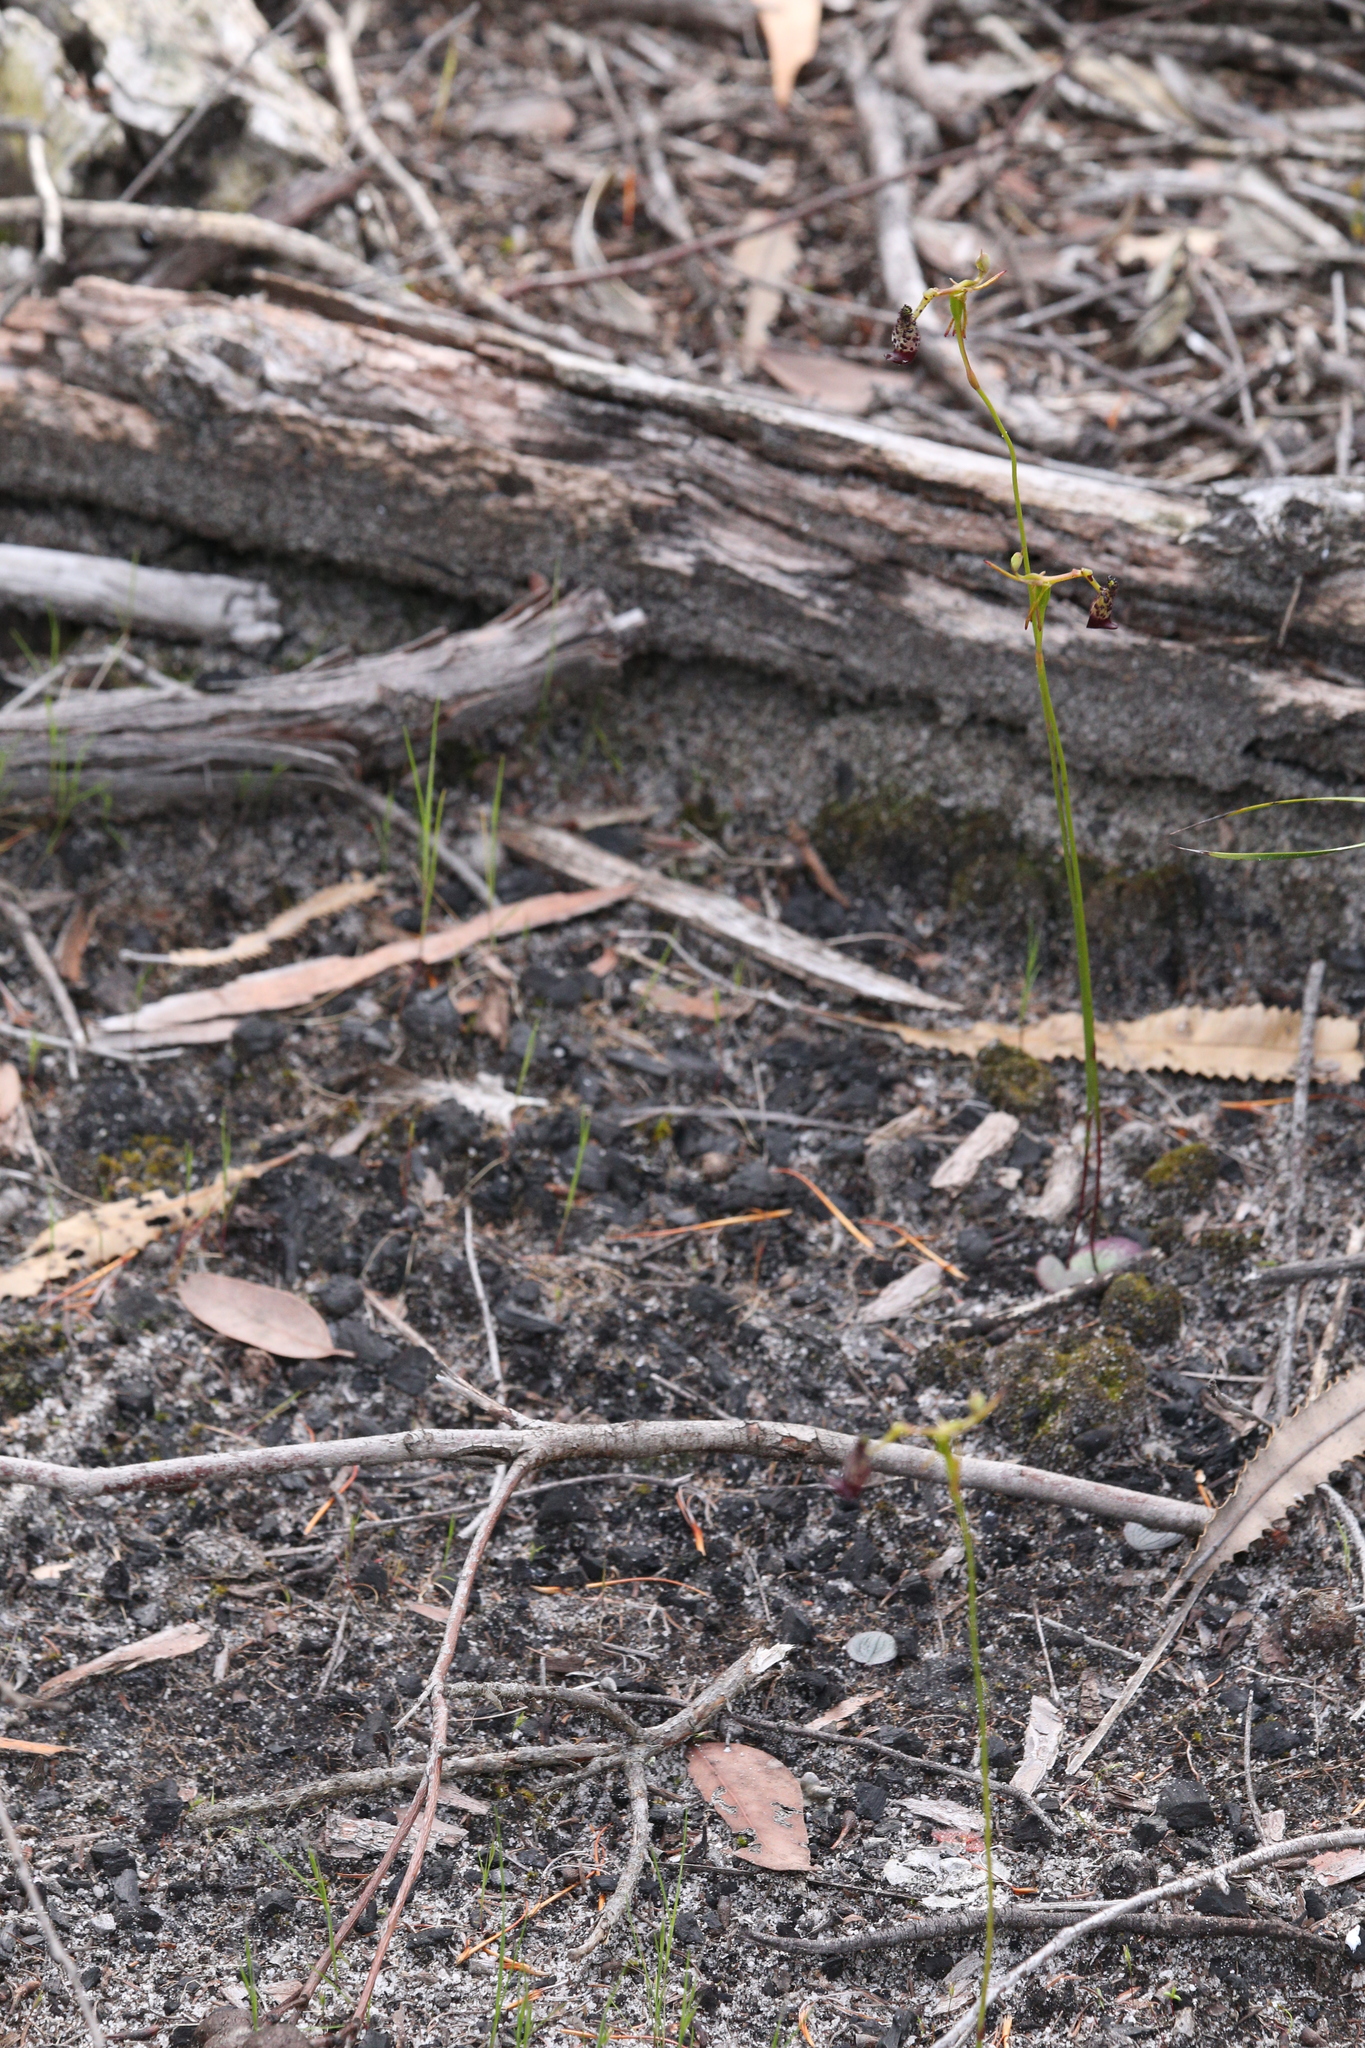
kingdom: Plantae
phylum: Tracheophyta
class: Liliopsida
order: Asparagales
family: Orchidaceae
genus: Drakaea
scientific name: Drakaea livida
